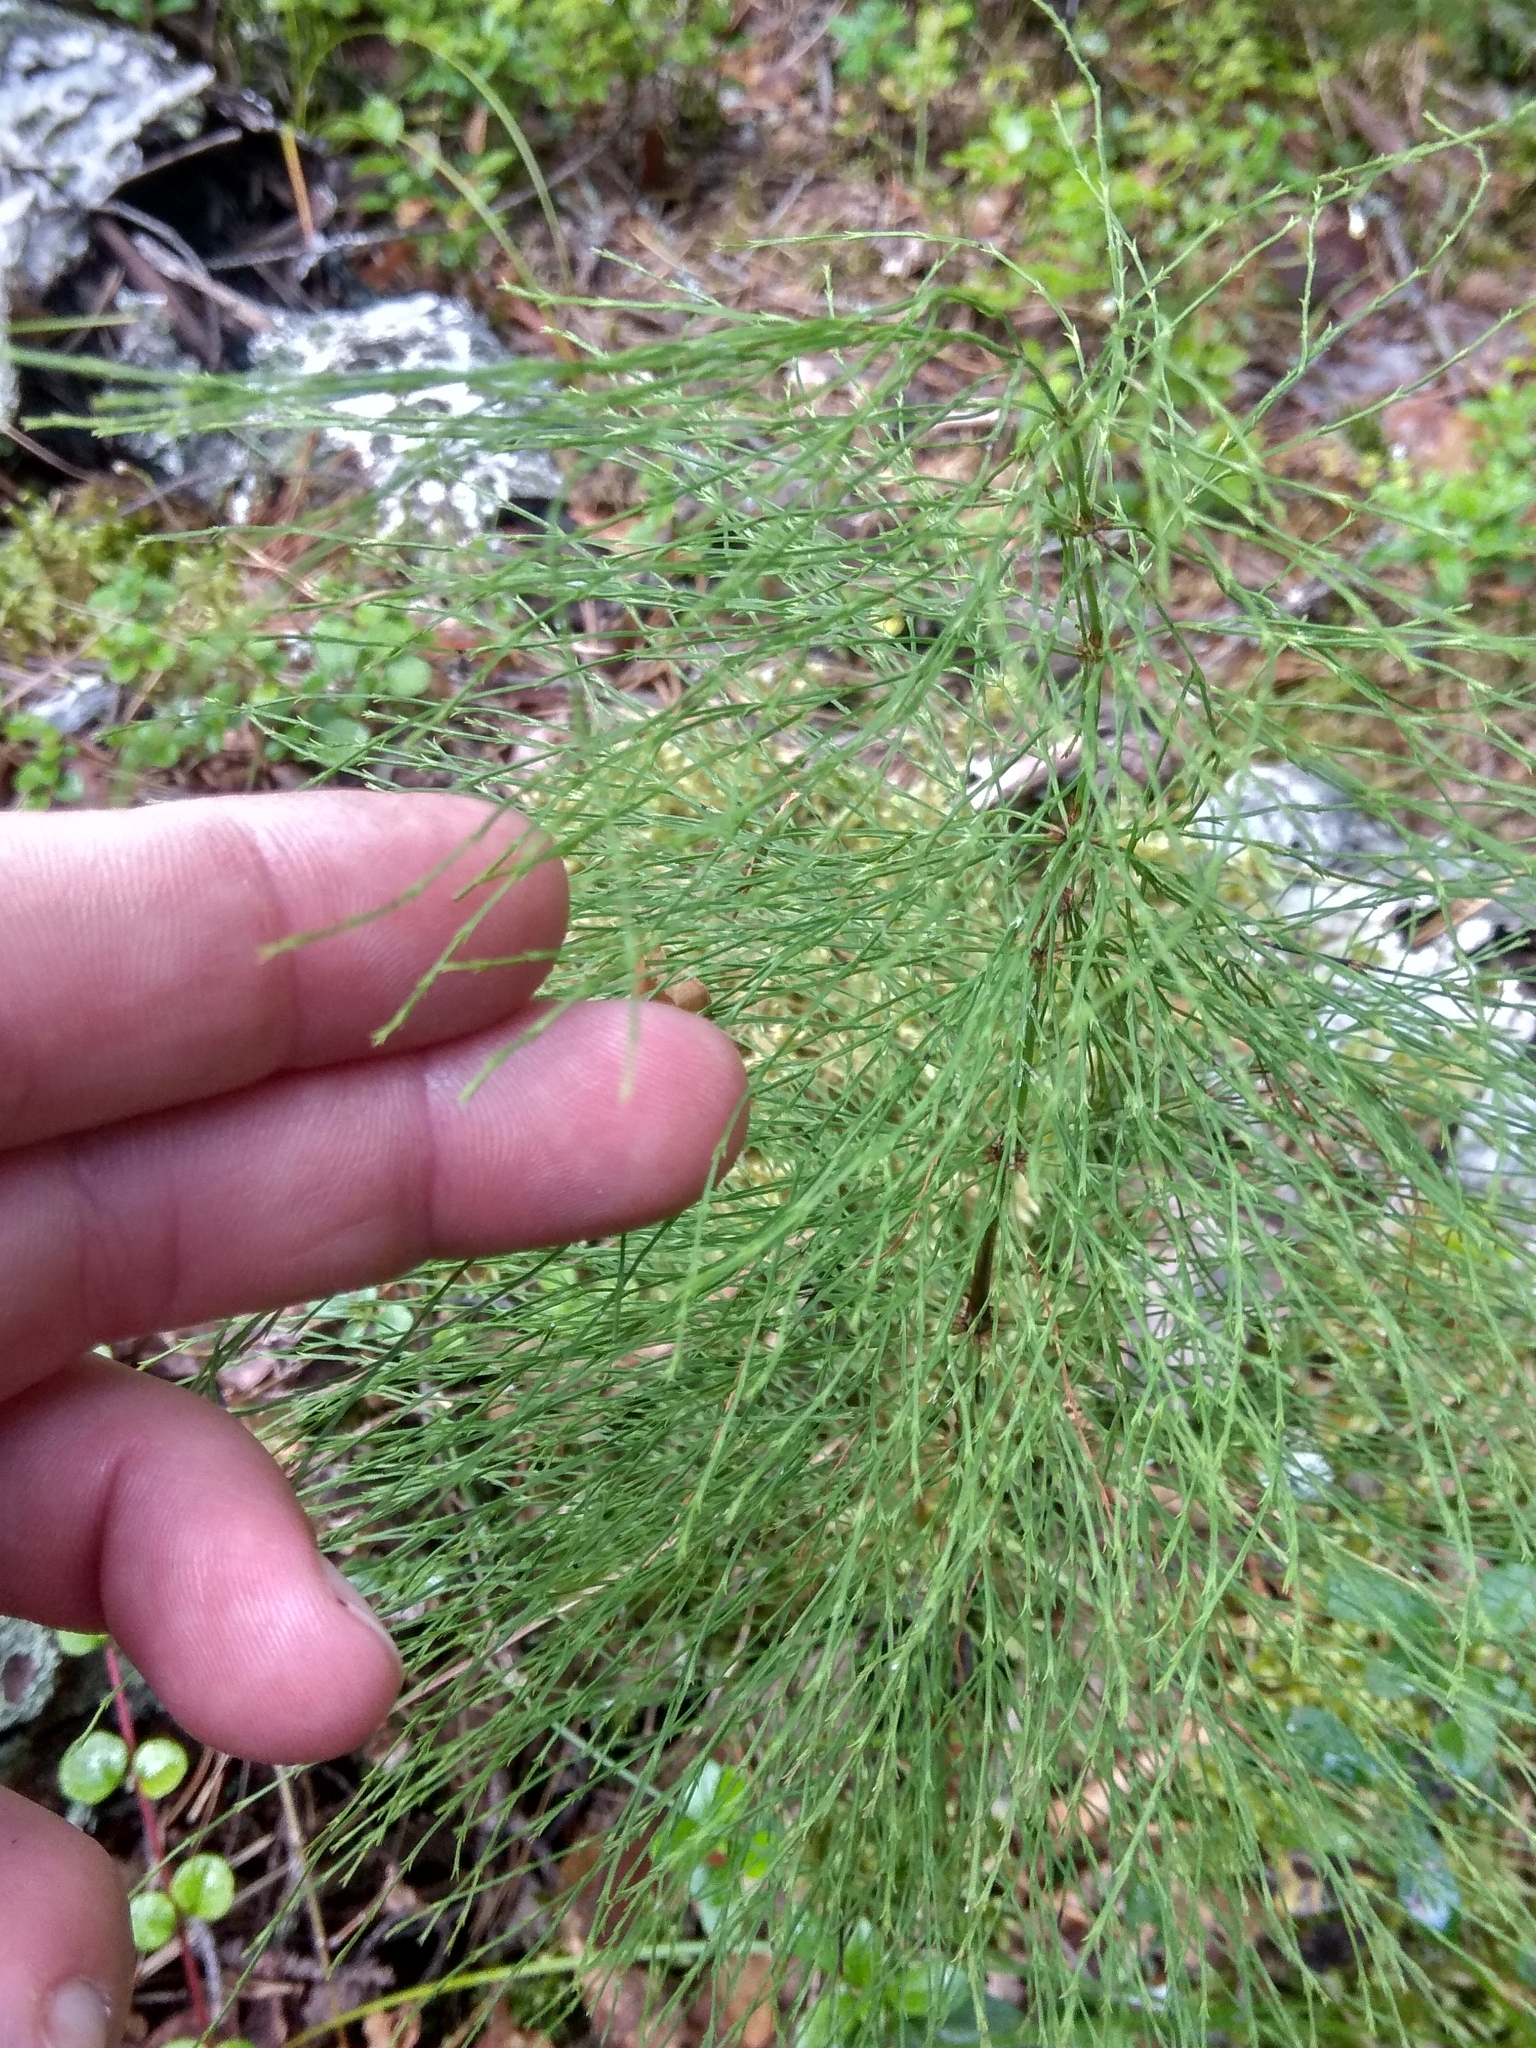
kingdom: Plantae
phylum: Tracheophyta
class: Polypodiopsida
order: Equisetales
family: Equisetaceae
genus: Equisetum
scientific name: Equisetum sylvaticum
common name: Wood horsetail
